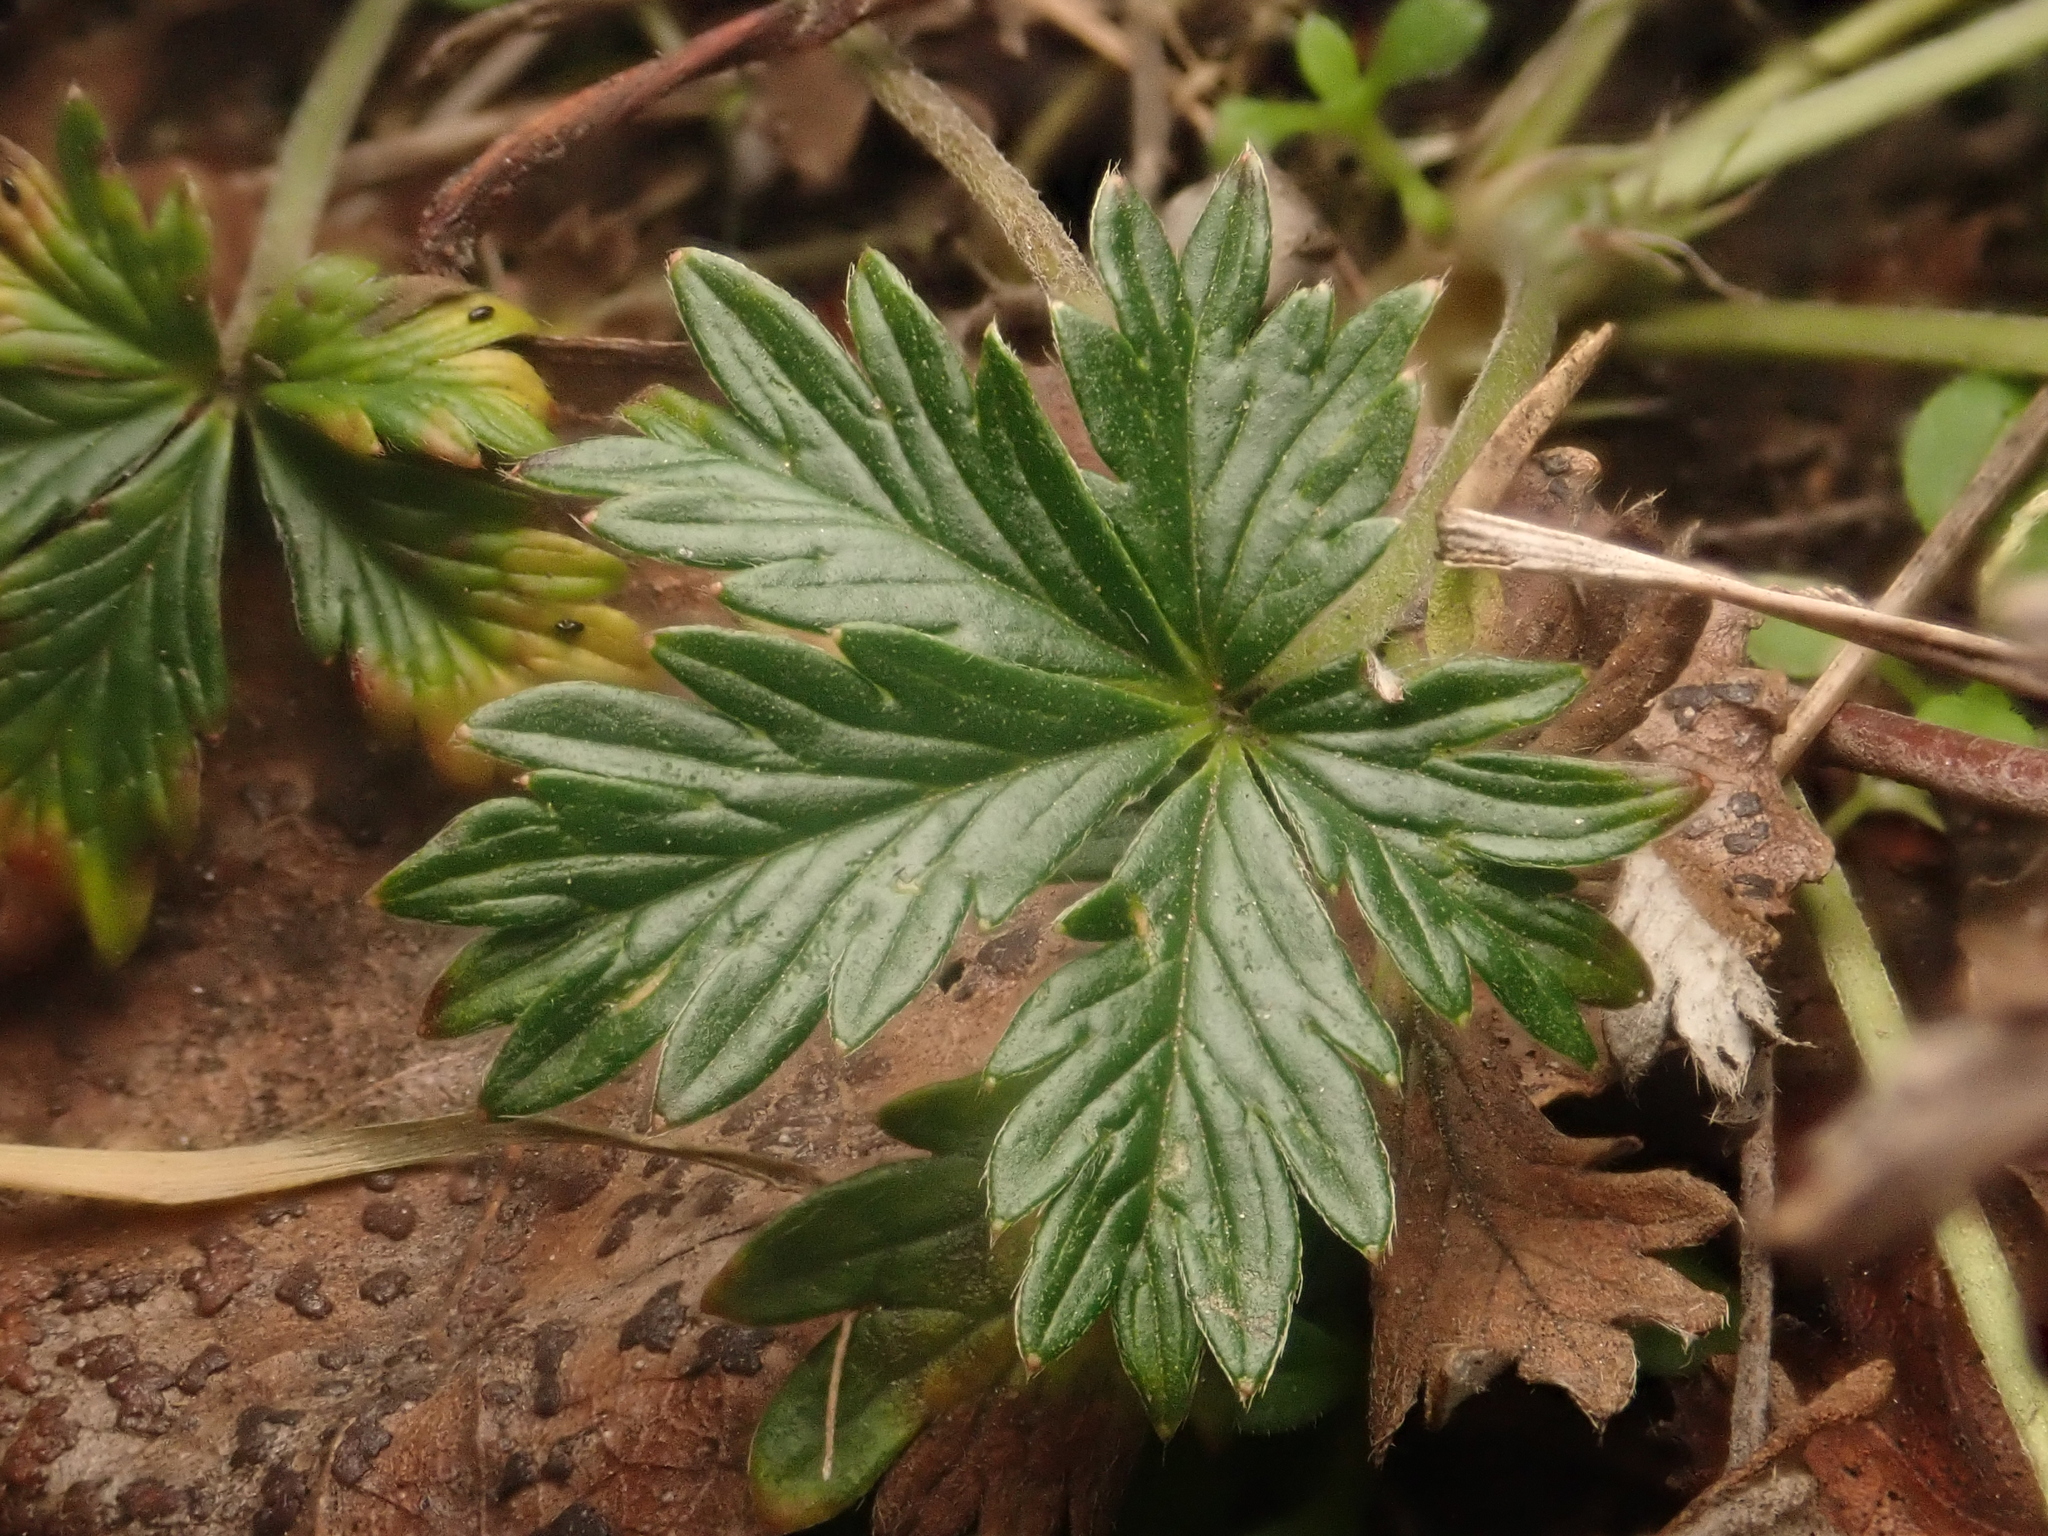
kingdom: Plantae
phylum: Tracheophyta
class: Magnoliopsida
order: Rosales
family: Rosaceae
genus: Potentilla
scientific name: Potentilla argentea
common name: Hoary cinquefoil
